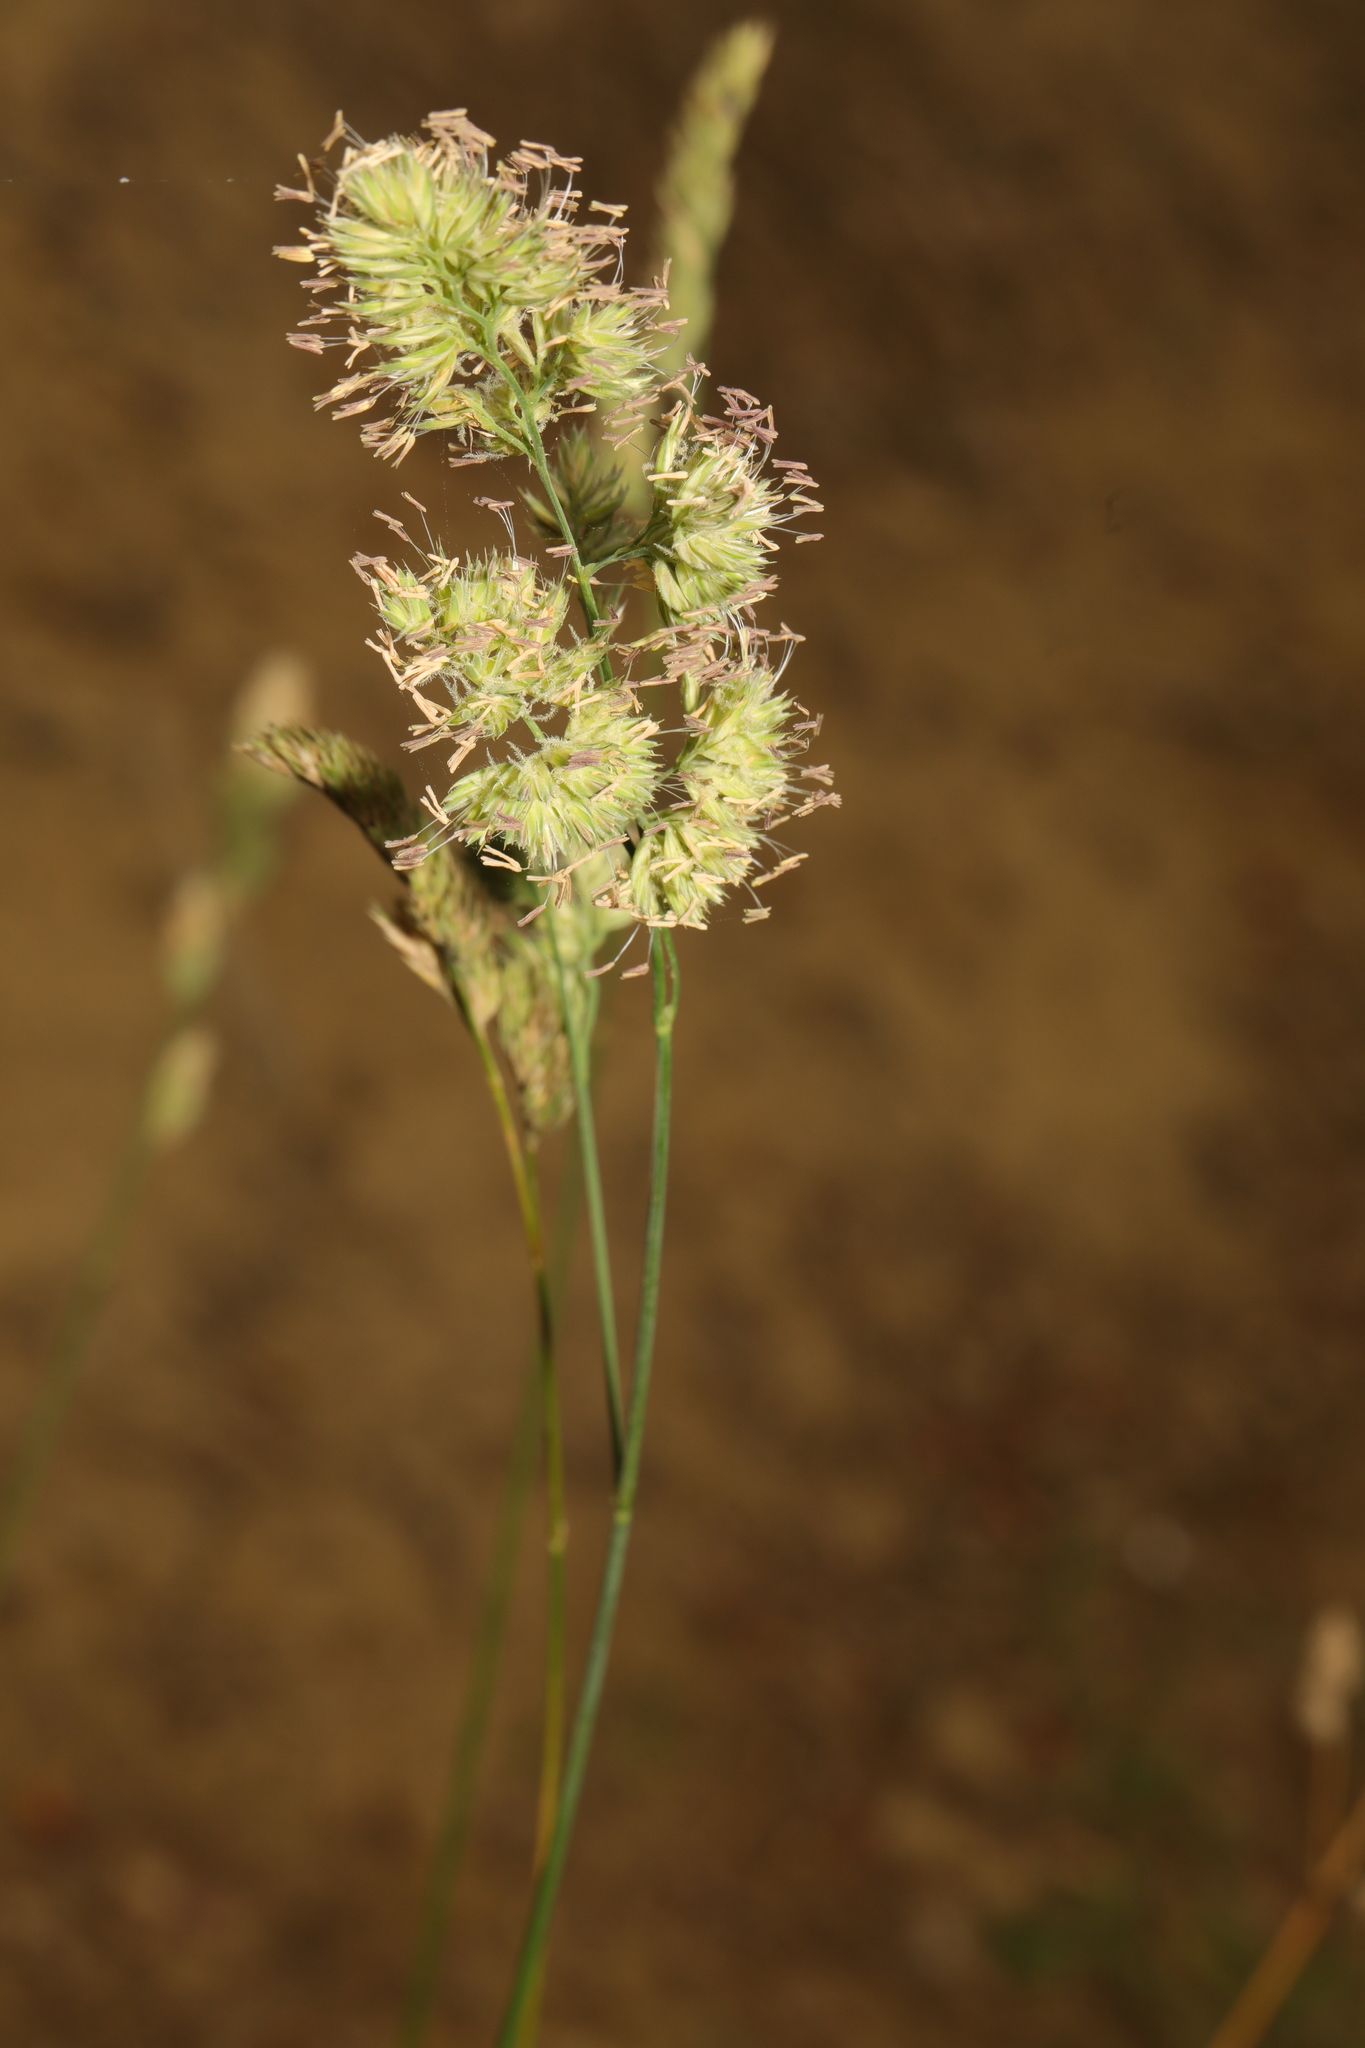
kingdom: Plantae
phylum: Tracheophyta
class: Liliopsida
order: Poales
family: Poaceae
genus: Dactylis
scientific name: Dactylis glomerata
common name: Orchardgrass
